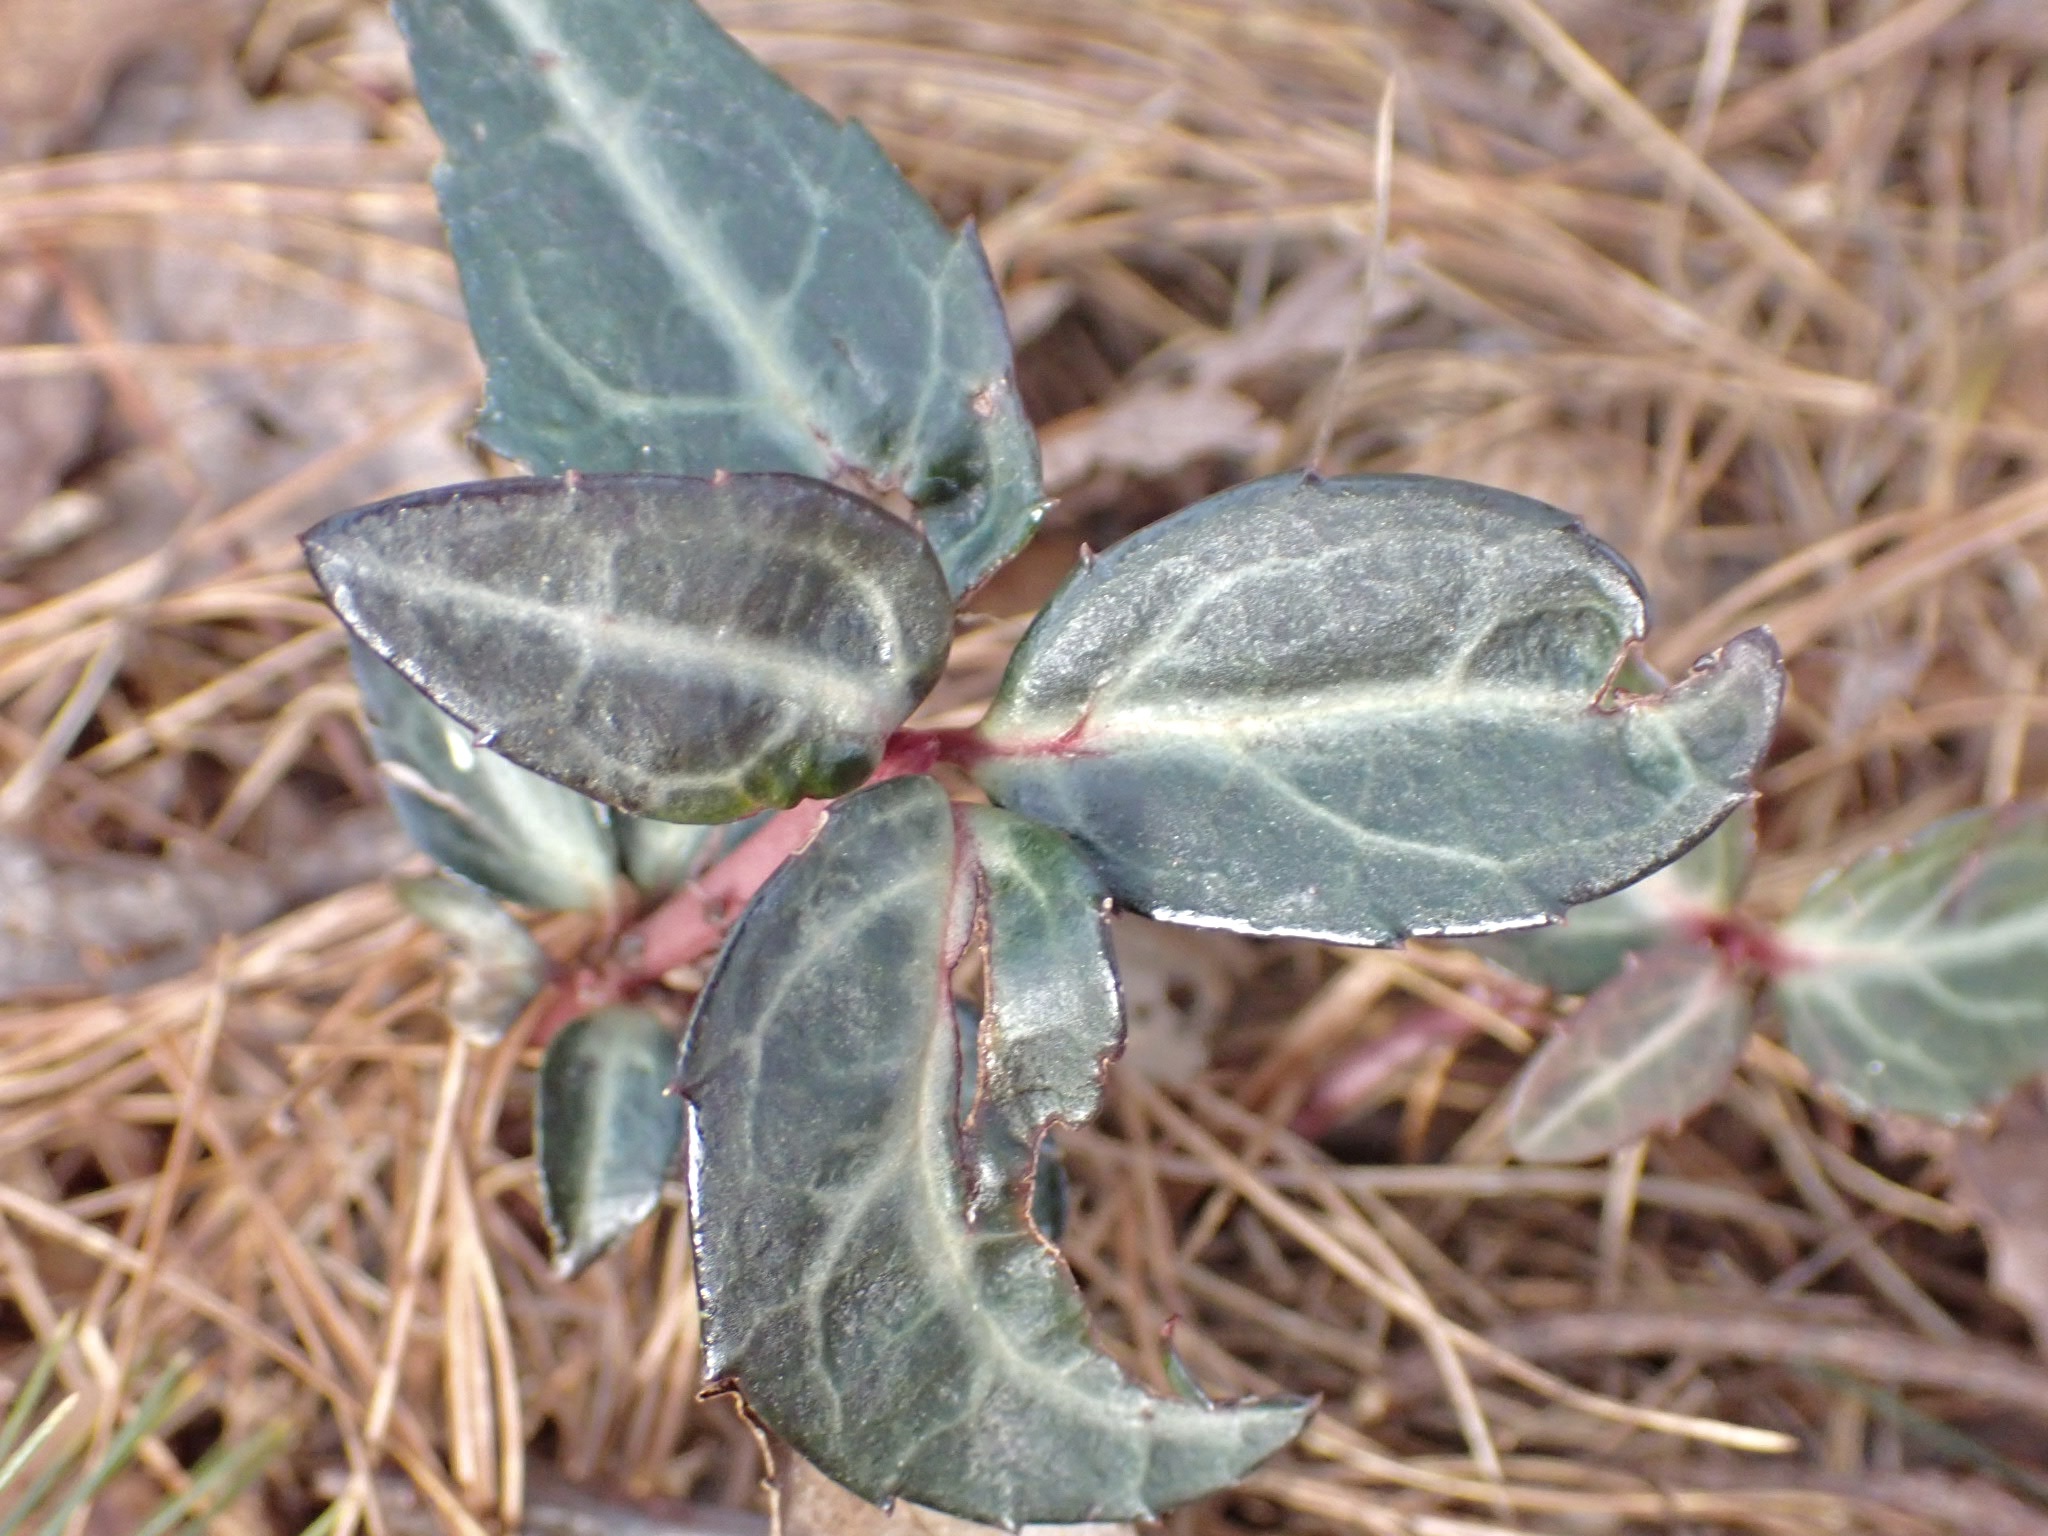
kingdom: Plantae
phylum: Tracheophyta
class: Magnoliopsida
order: Ericales
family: Ericaceae
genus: Chimaphila
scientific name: Chimaphila maculata
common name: Spotted pipsissewa
